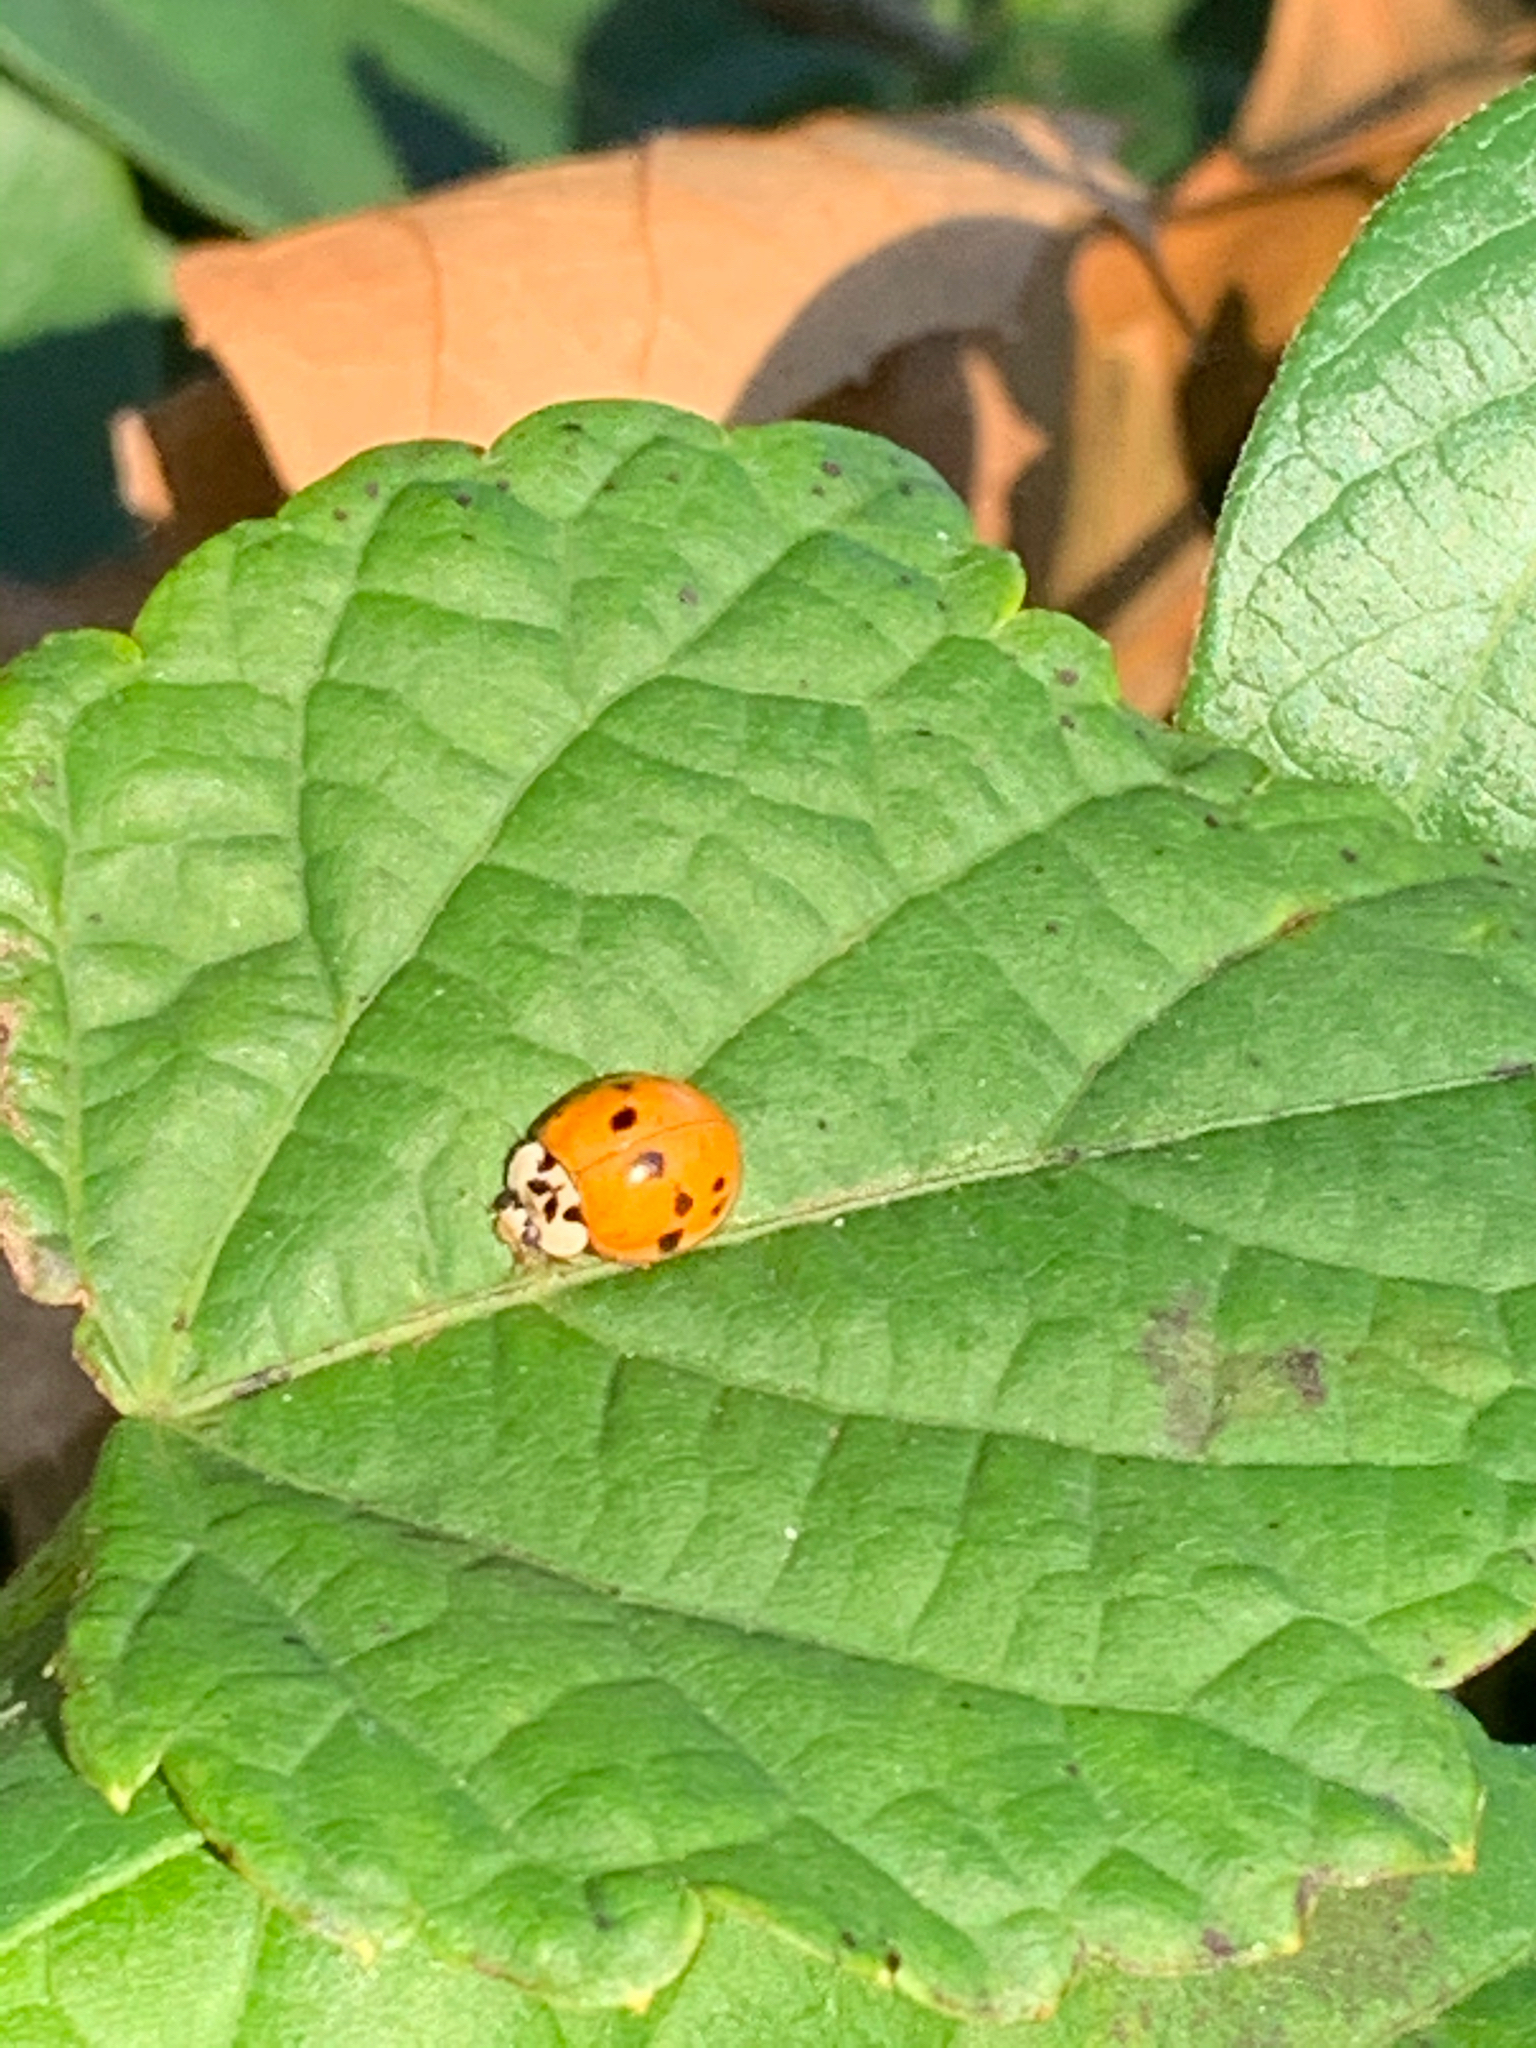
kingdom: Animalia
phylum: Arthropoda
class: Insecta
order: Coleoptera
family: Coccinellidae
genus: Harmonia
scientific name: Harmonia axyridis
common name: Harlequin ladybird
